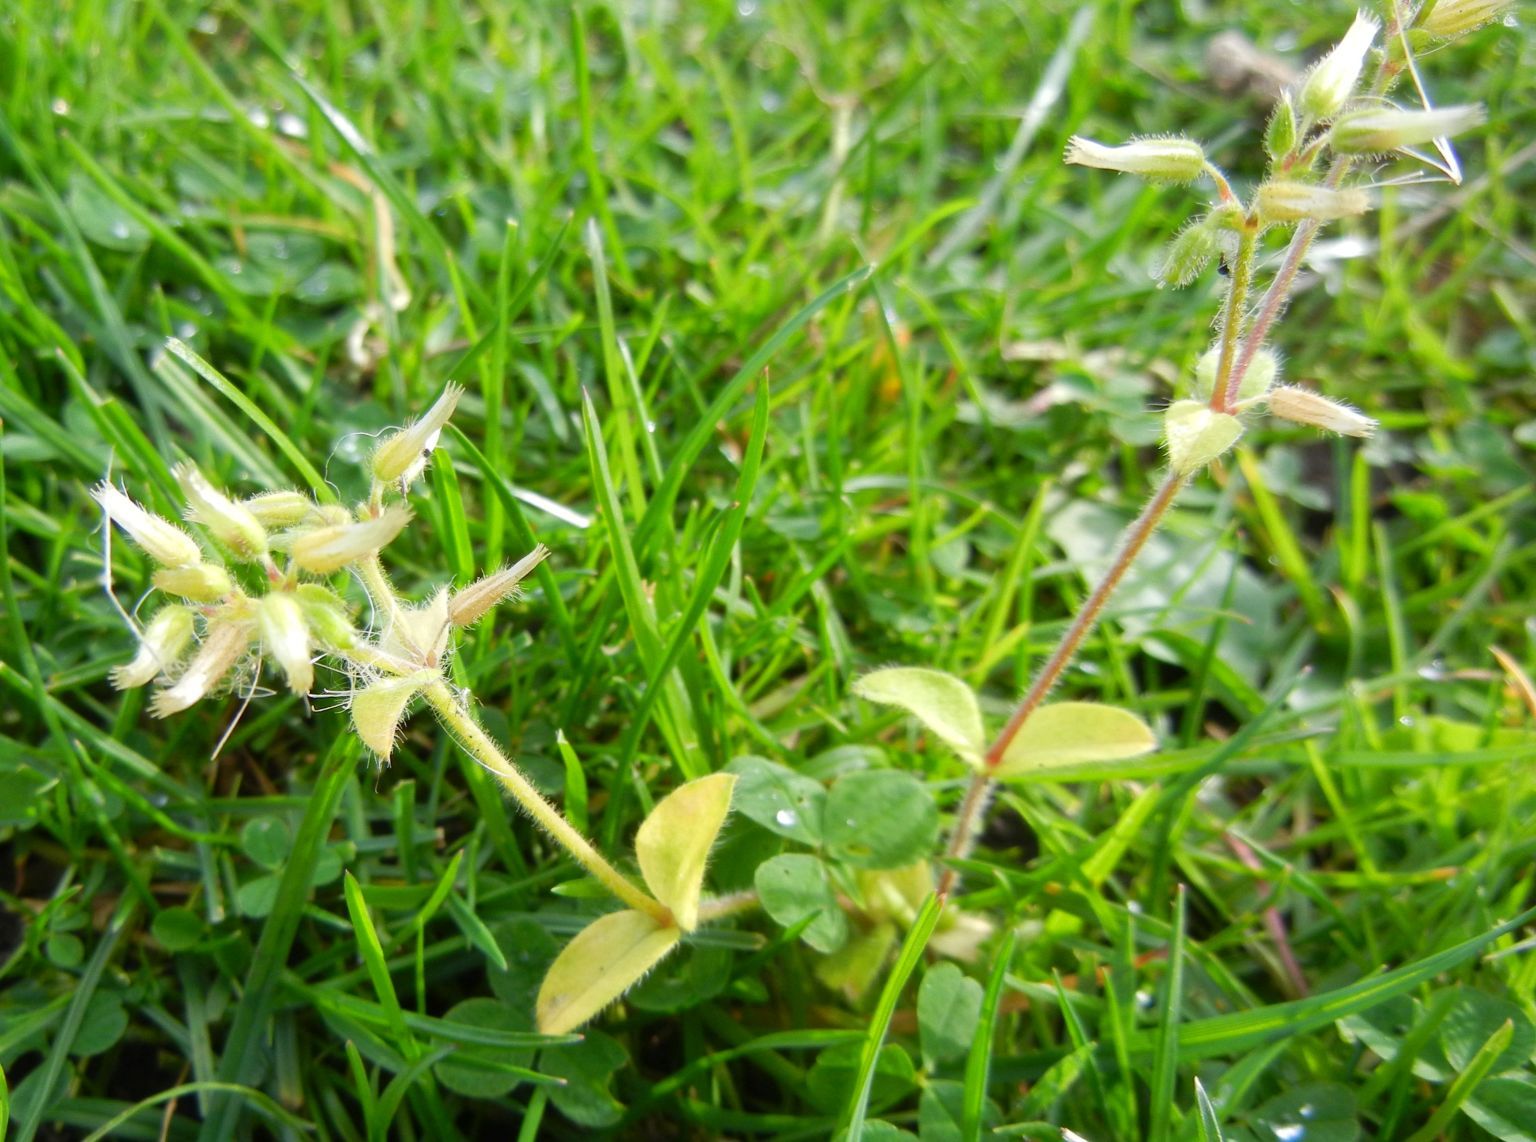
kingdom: Plantae
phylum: Tracheophyta
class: Magnoliopsida
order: Caryophyllales
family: Caryophyllaceae
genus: Cerastium
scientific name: Cerastium glomeratum
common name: Sticky chickweed
